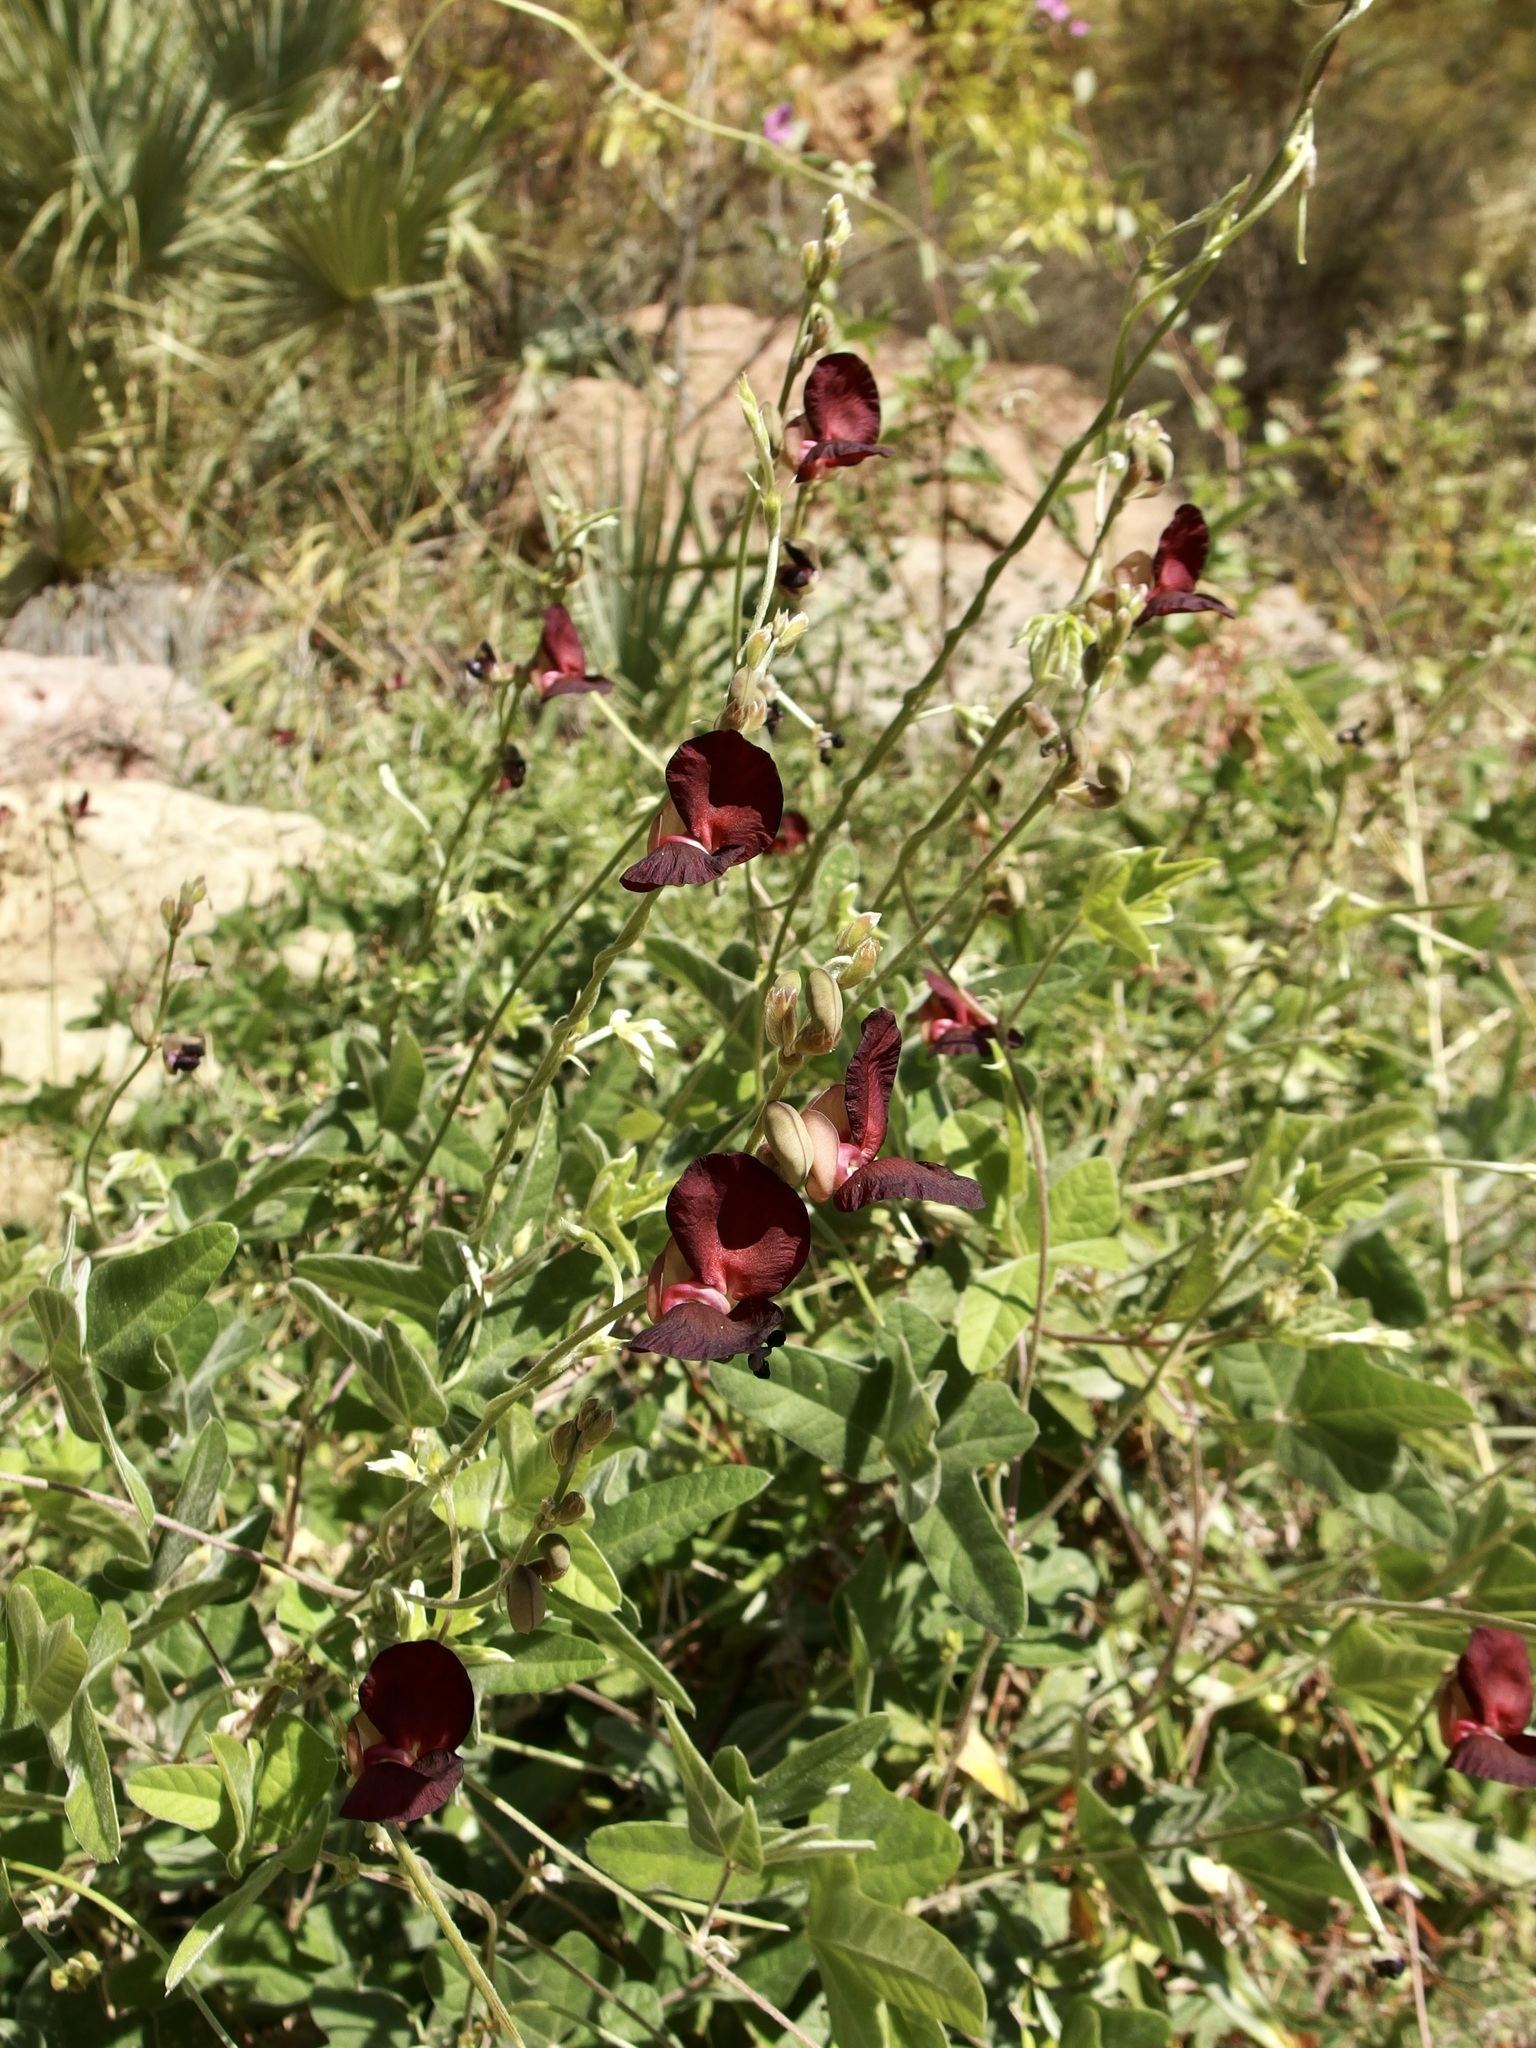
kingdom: Plantae
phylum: Tracheophyta
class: Magnoliopsida
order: Fabales
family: Fabaceae
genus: Macroptilium
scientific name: Macroptilium atropurpureum
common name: Purple bushbean
